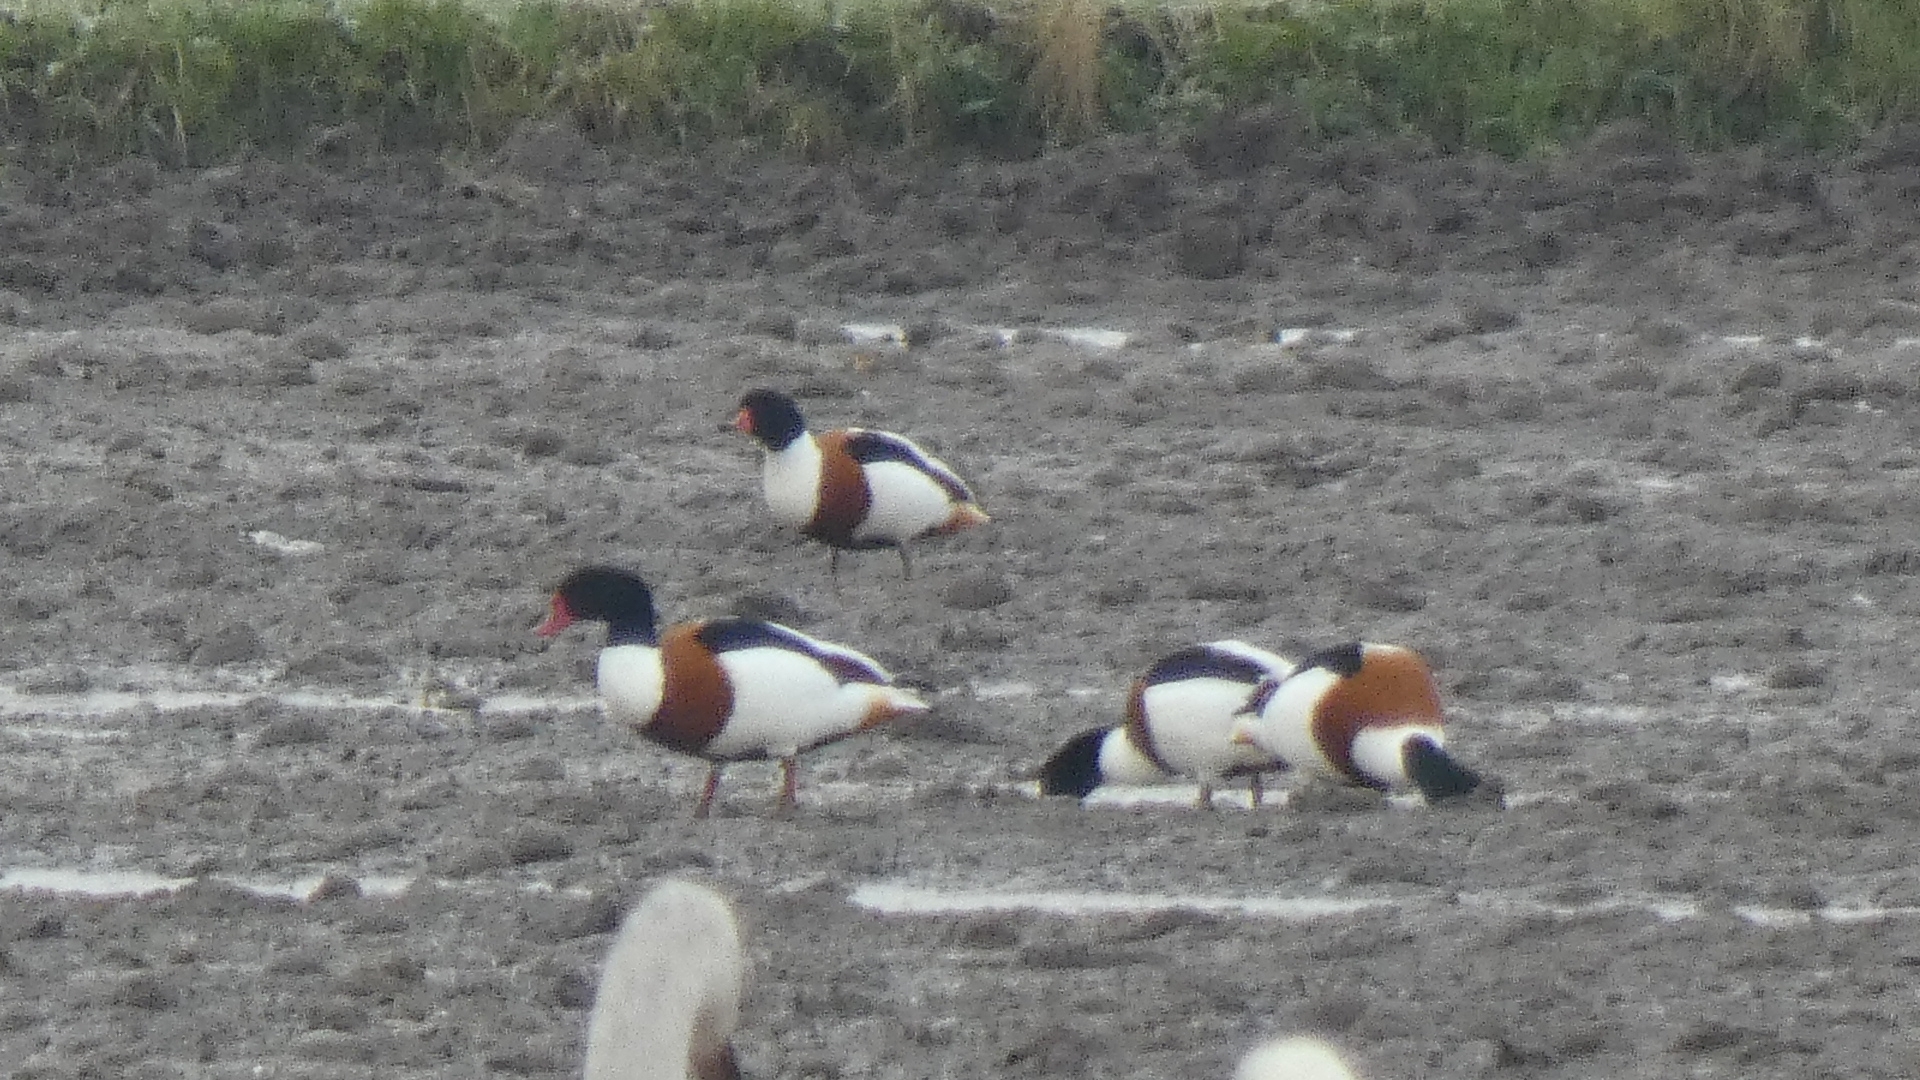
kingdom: Animalia
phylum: Chordata
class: Aves
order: Anseriformes
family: Anatidae
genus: Tadorna
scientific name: Tadorna tadorna
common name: Common shelduck
